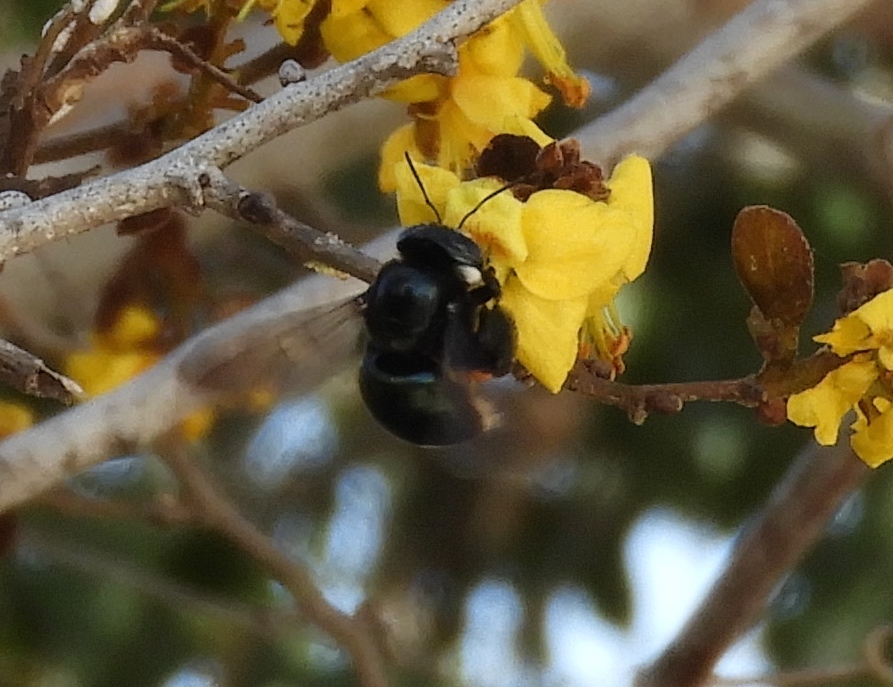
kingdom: Animalia
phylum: Arthropoda
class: Insecta
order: Hymenoptera
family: Apidae
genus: Xylocopa
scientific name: Xylocopa muscaria
